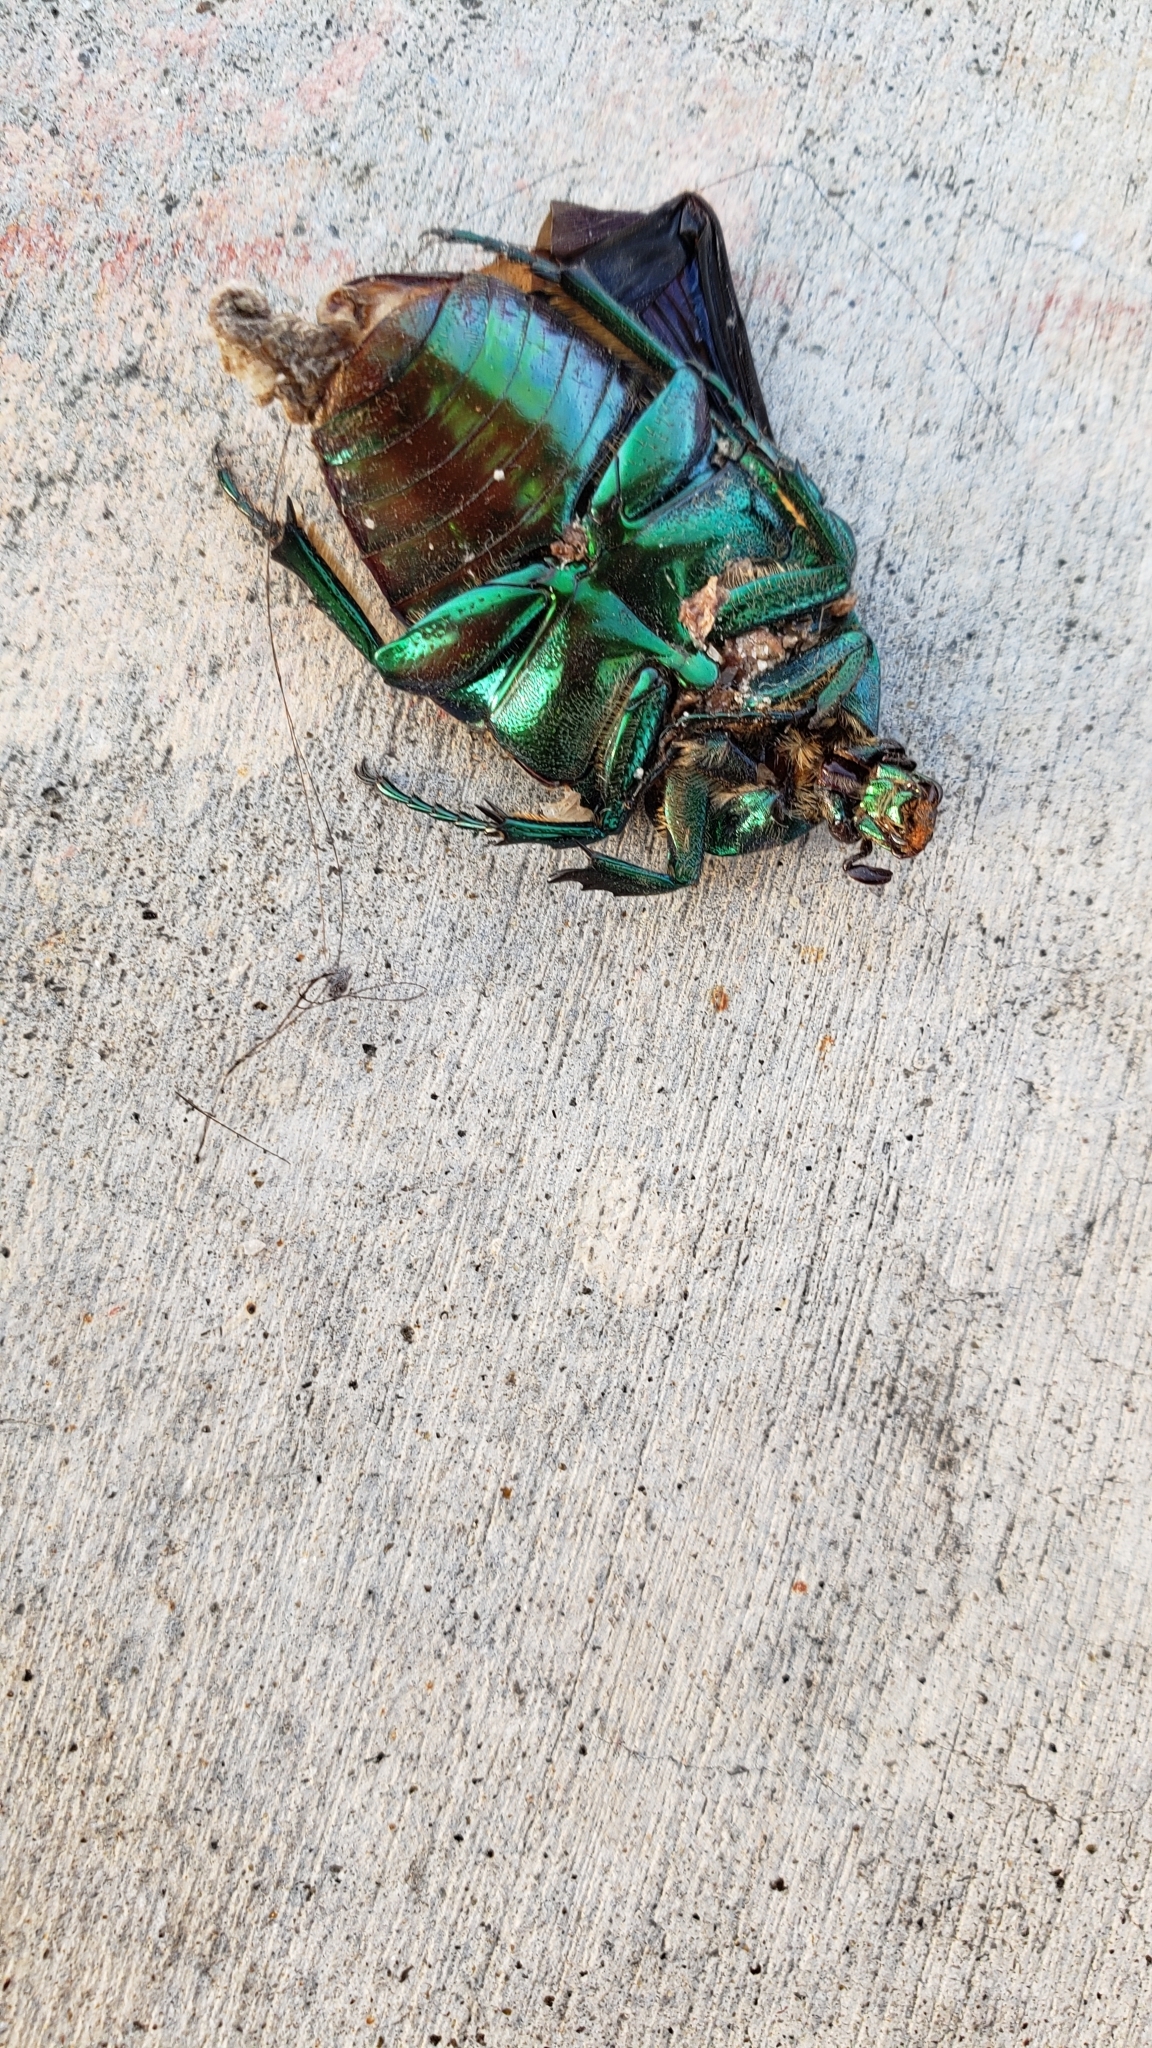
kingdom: Animalia
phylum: Arthropoda
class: Insecta
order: Coleoptera
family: Scarabaeidae
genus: Cotinis
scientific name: Cotinis mutabilis
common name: Figeater beetle
